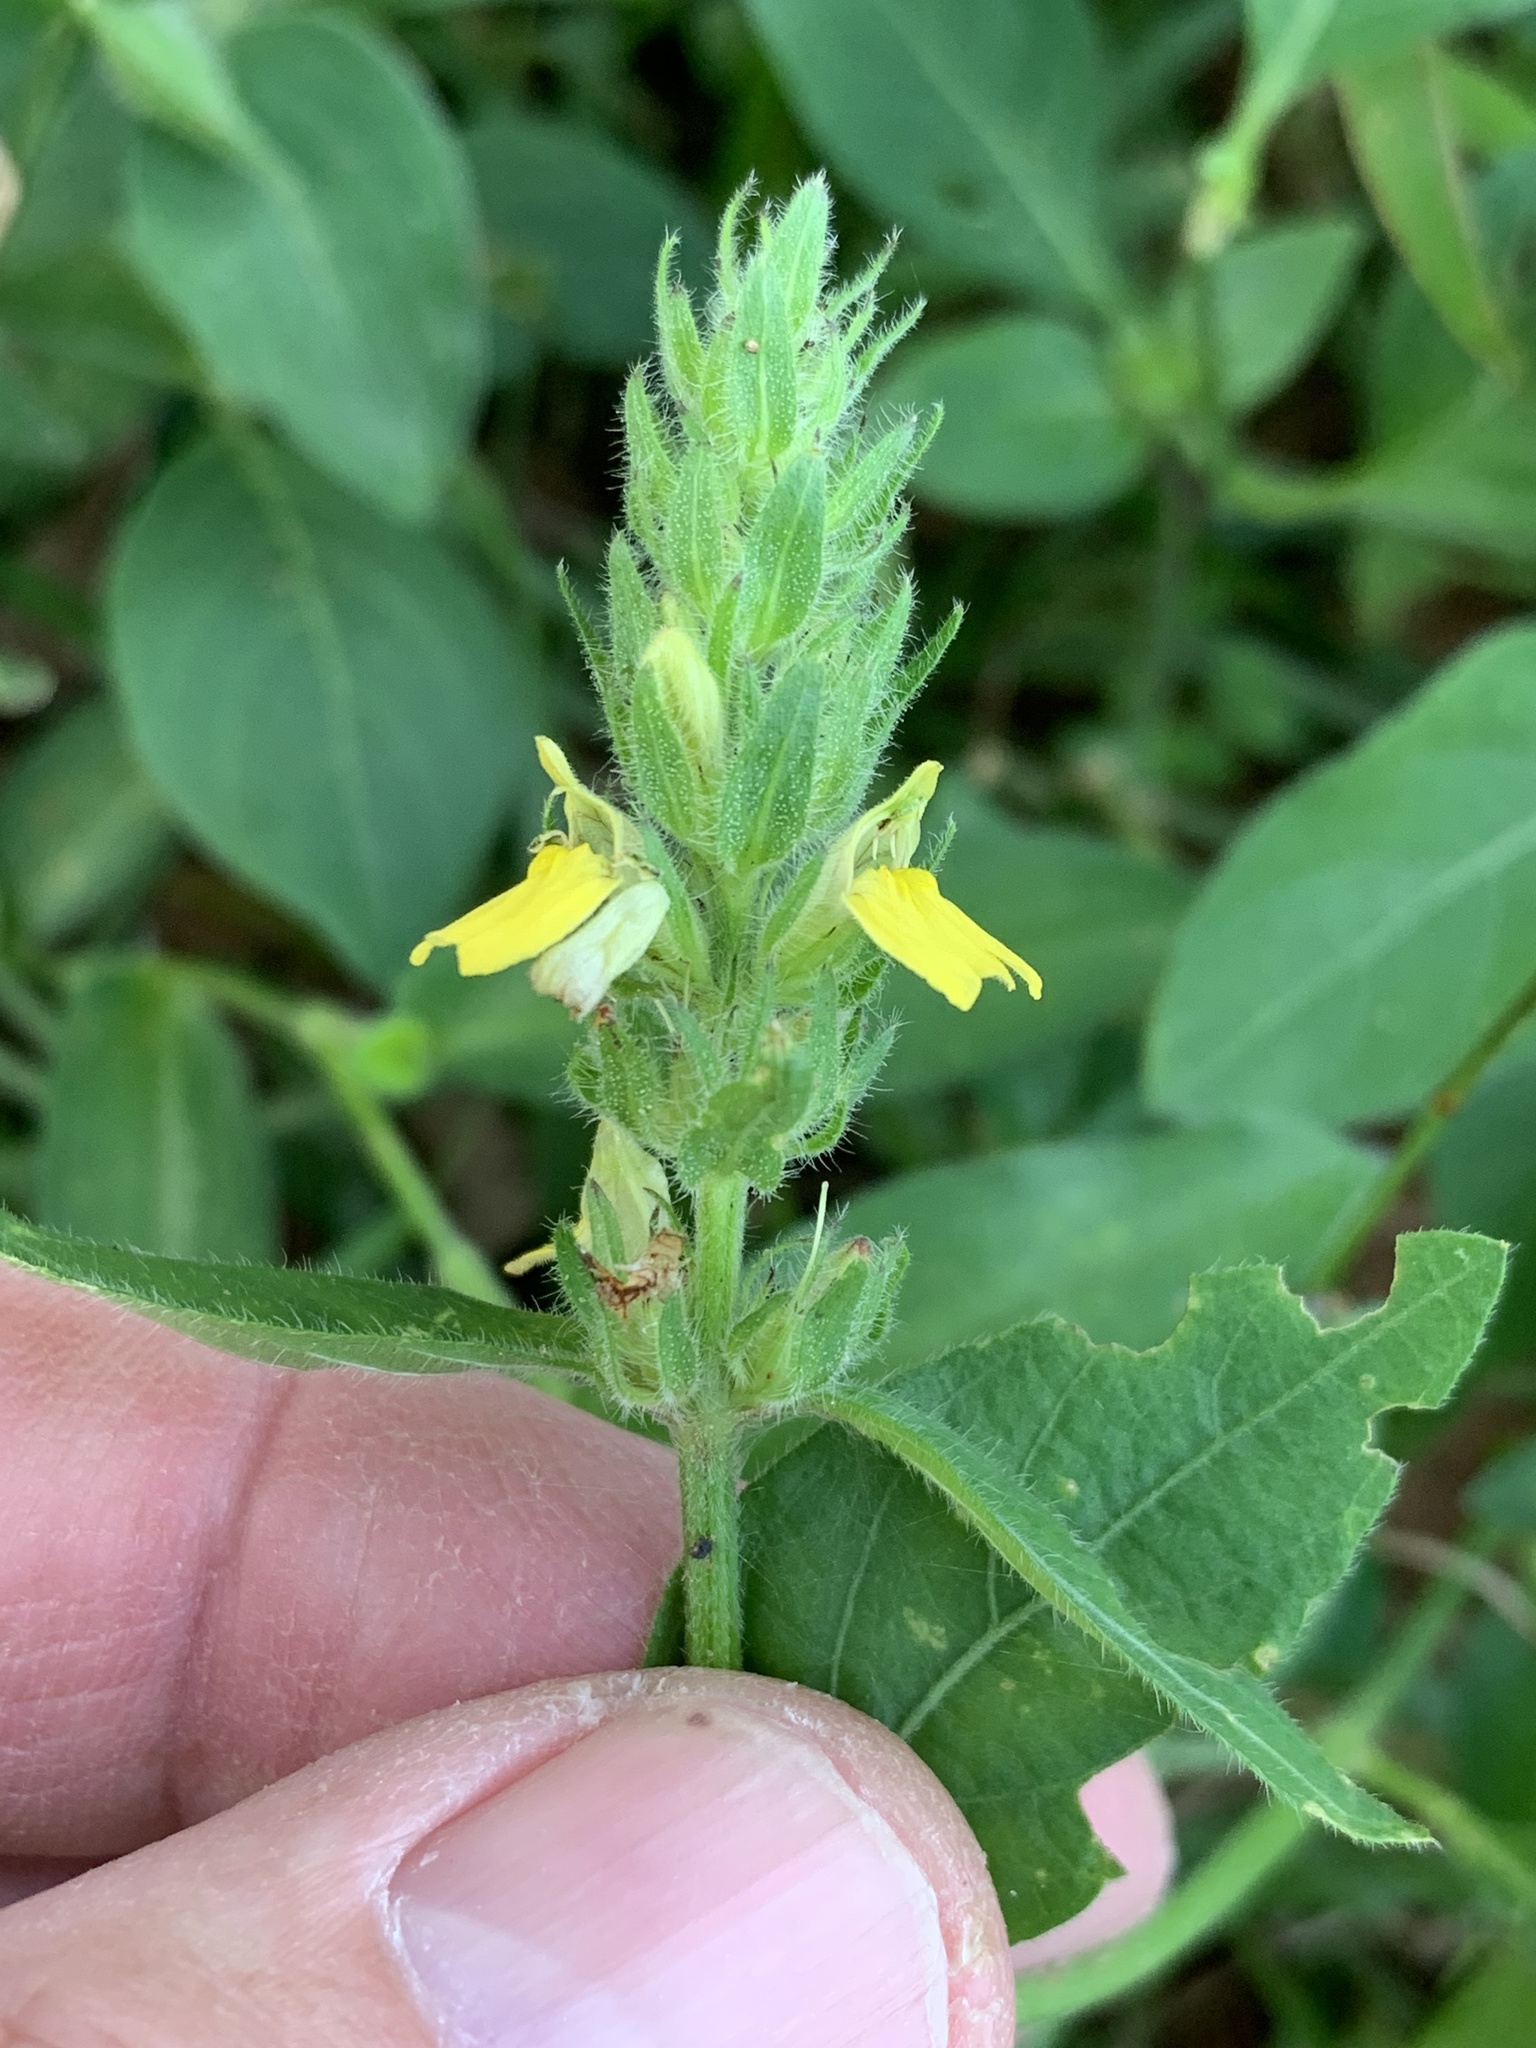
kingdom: Plantae
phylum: Tracheophyta
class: Magnoliopsida
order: Lamiales
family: Acanthaceae
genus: Justicia
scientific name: Justicia flava
